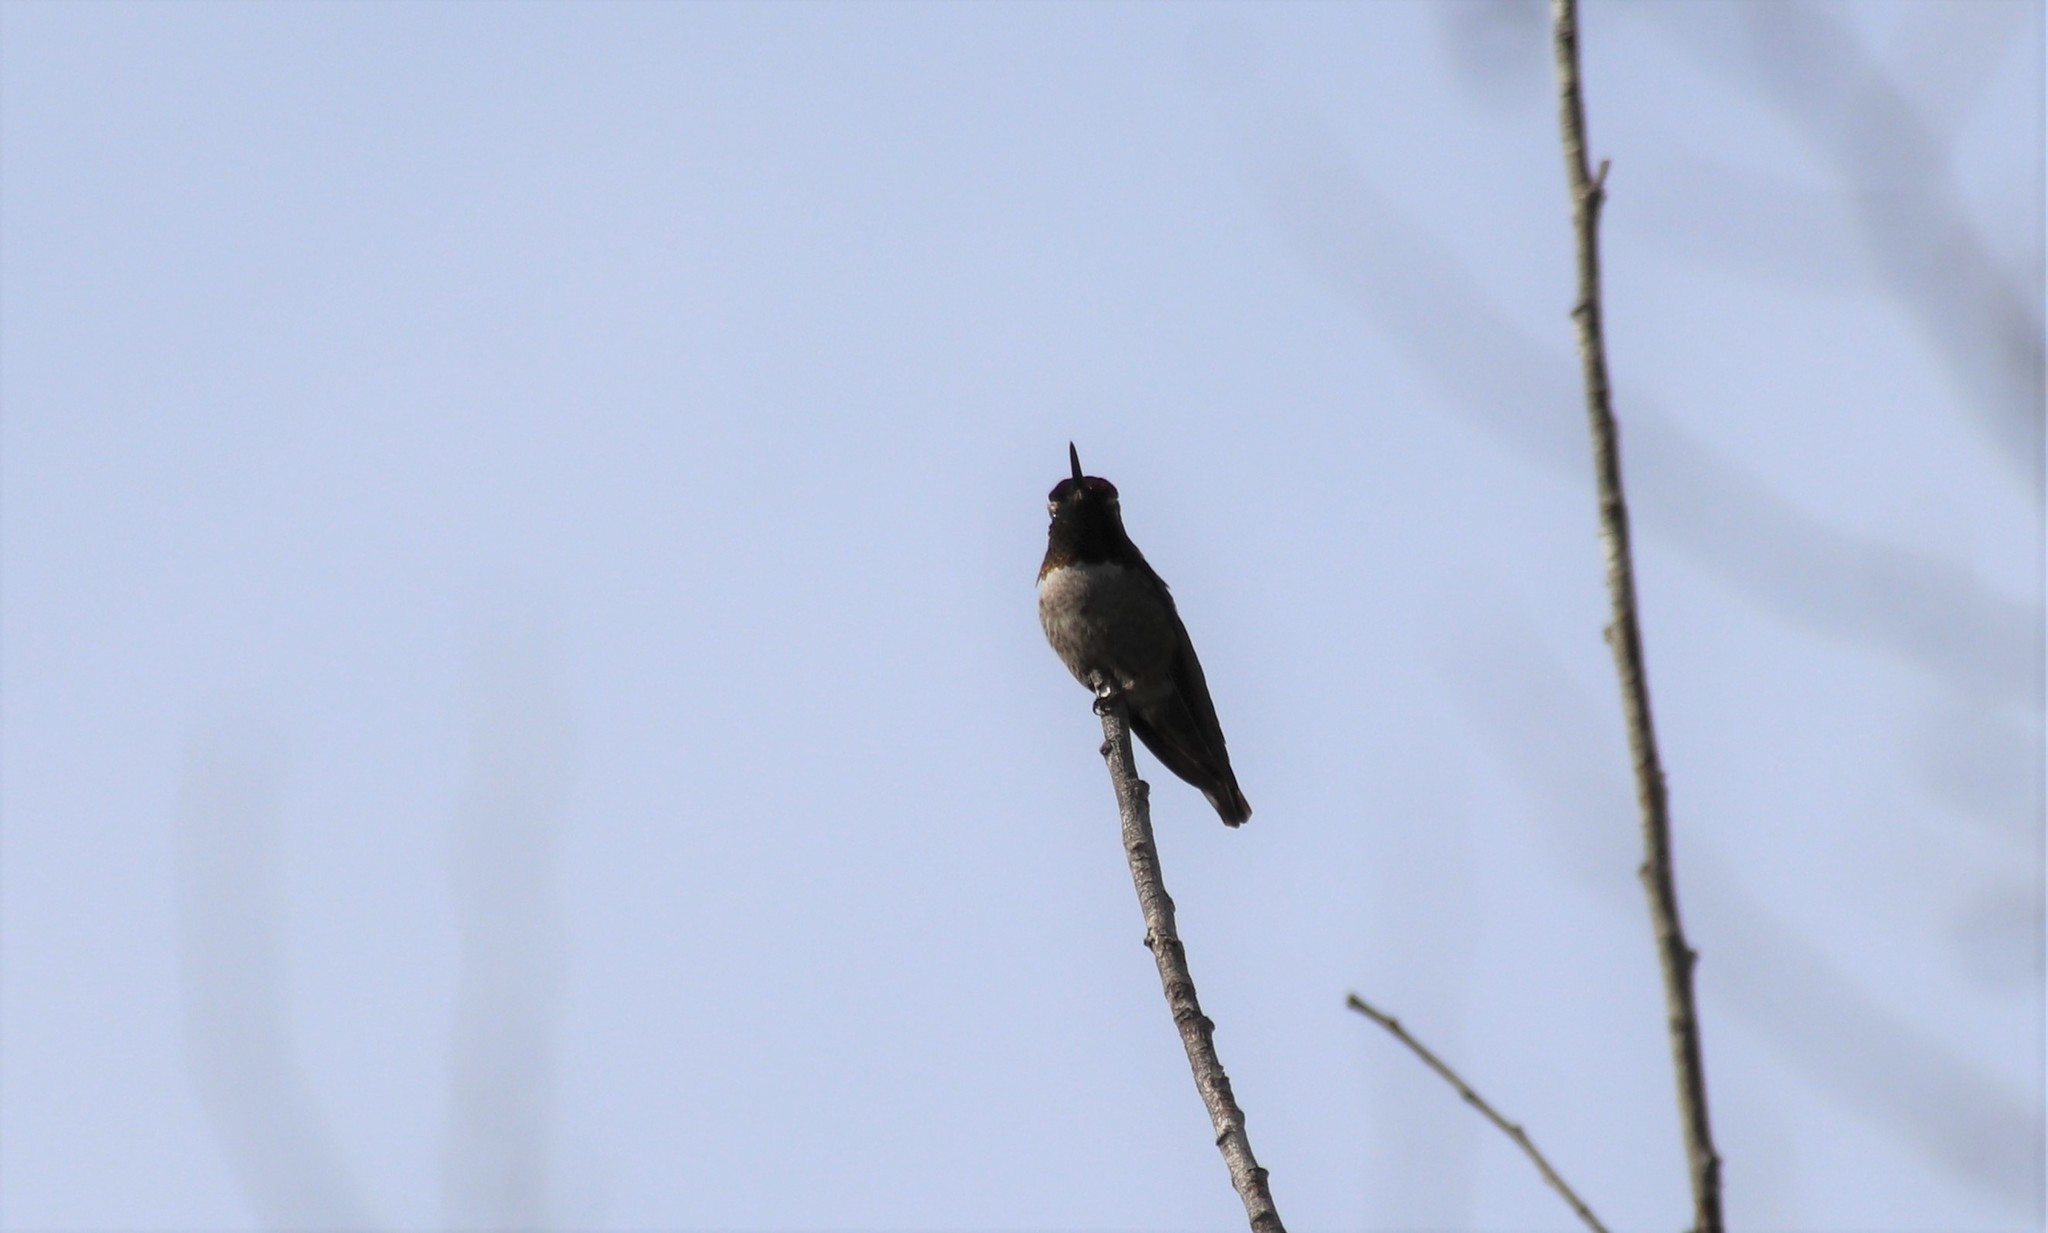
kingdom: Animalia
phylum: Chordata
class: Aves
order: Apodiformes
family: Trochilidae
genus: Calypte
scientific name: Calypte anna
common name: Anna's hummingbird
